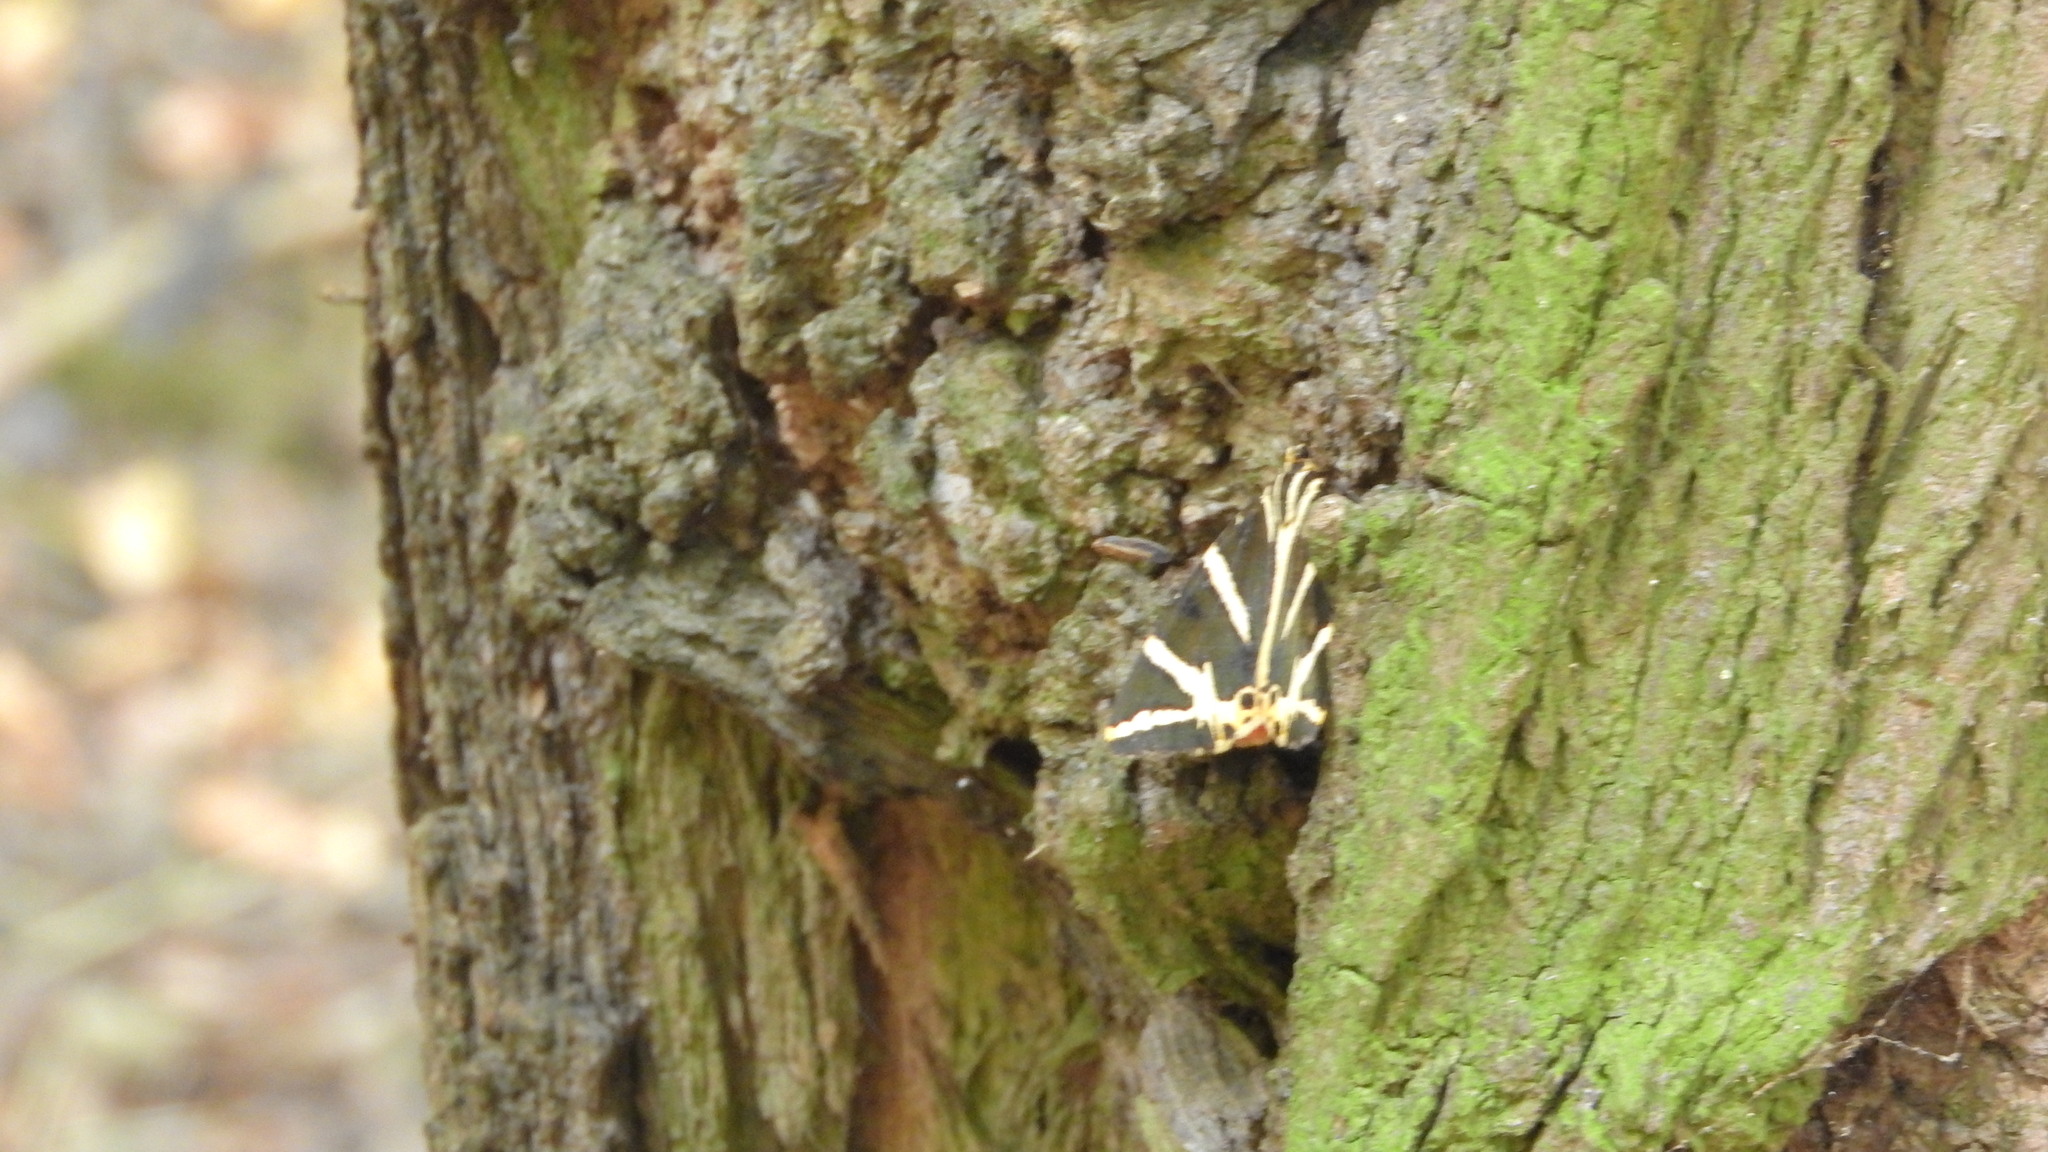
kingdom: Animalia
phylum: Arthropoda
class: Insecta
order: Lepidoptera
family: Erebidae
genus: Euplagia
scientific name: Euplagia quadripunctaria
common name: Jersey tiger
